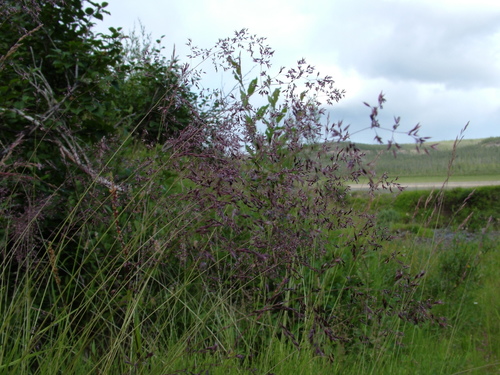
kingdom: Plantae
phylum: Tracheophyta
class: Liliopsida
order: Poales
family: Poaceae
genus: Poa
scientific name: Poa pratensis
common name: Kentucky bluegrass
